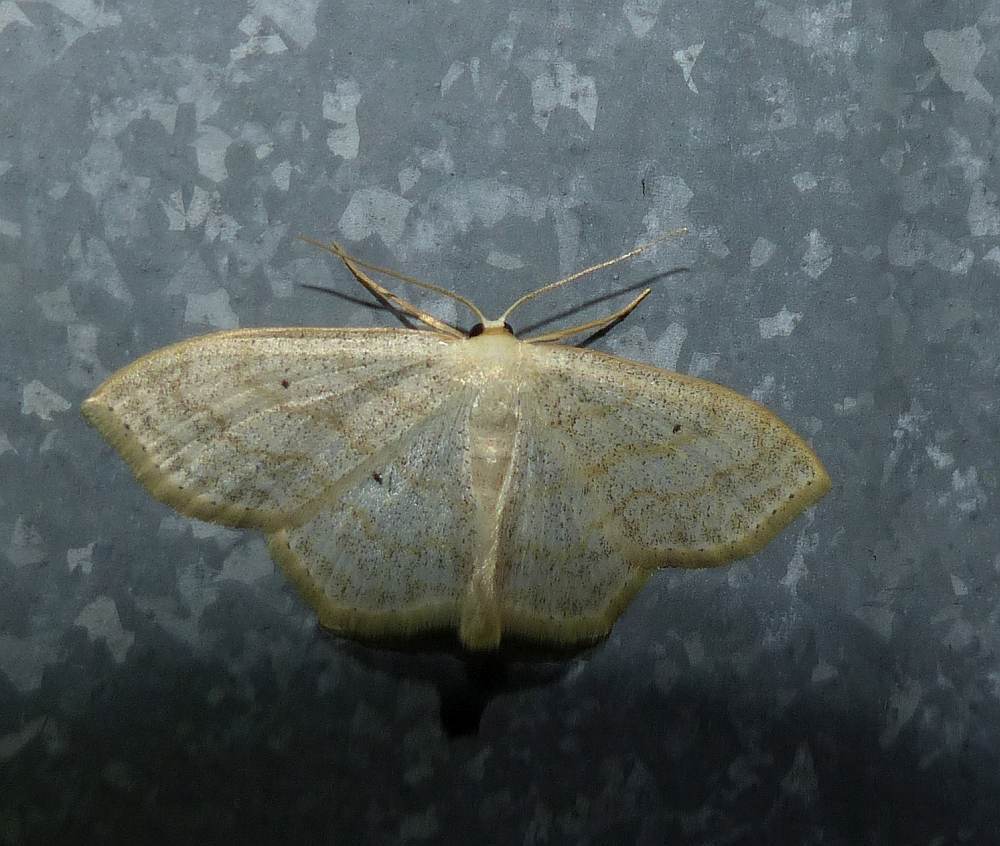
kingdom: Animalia
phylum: Arthropoda
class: Insecta
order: Lepidoptera
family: Geometridae
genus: Scopula
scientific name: Scopula limboundata
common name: Large lace border
